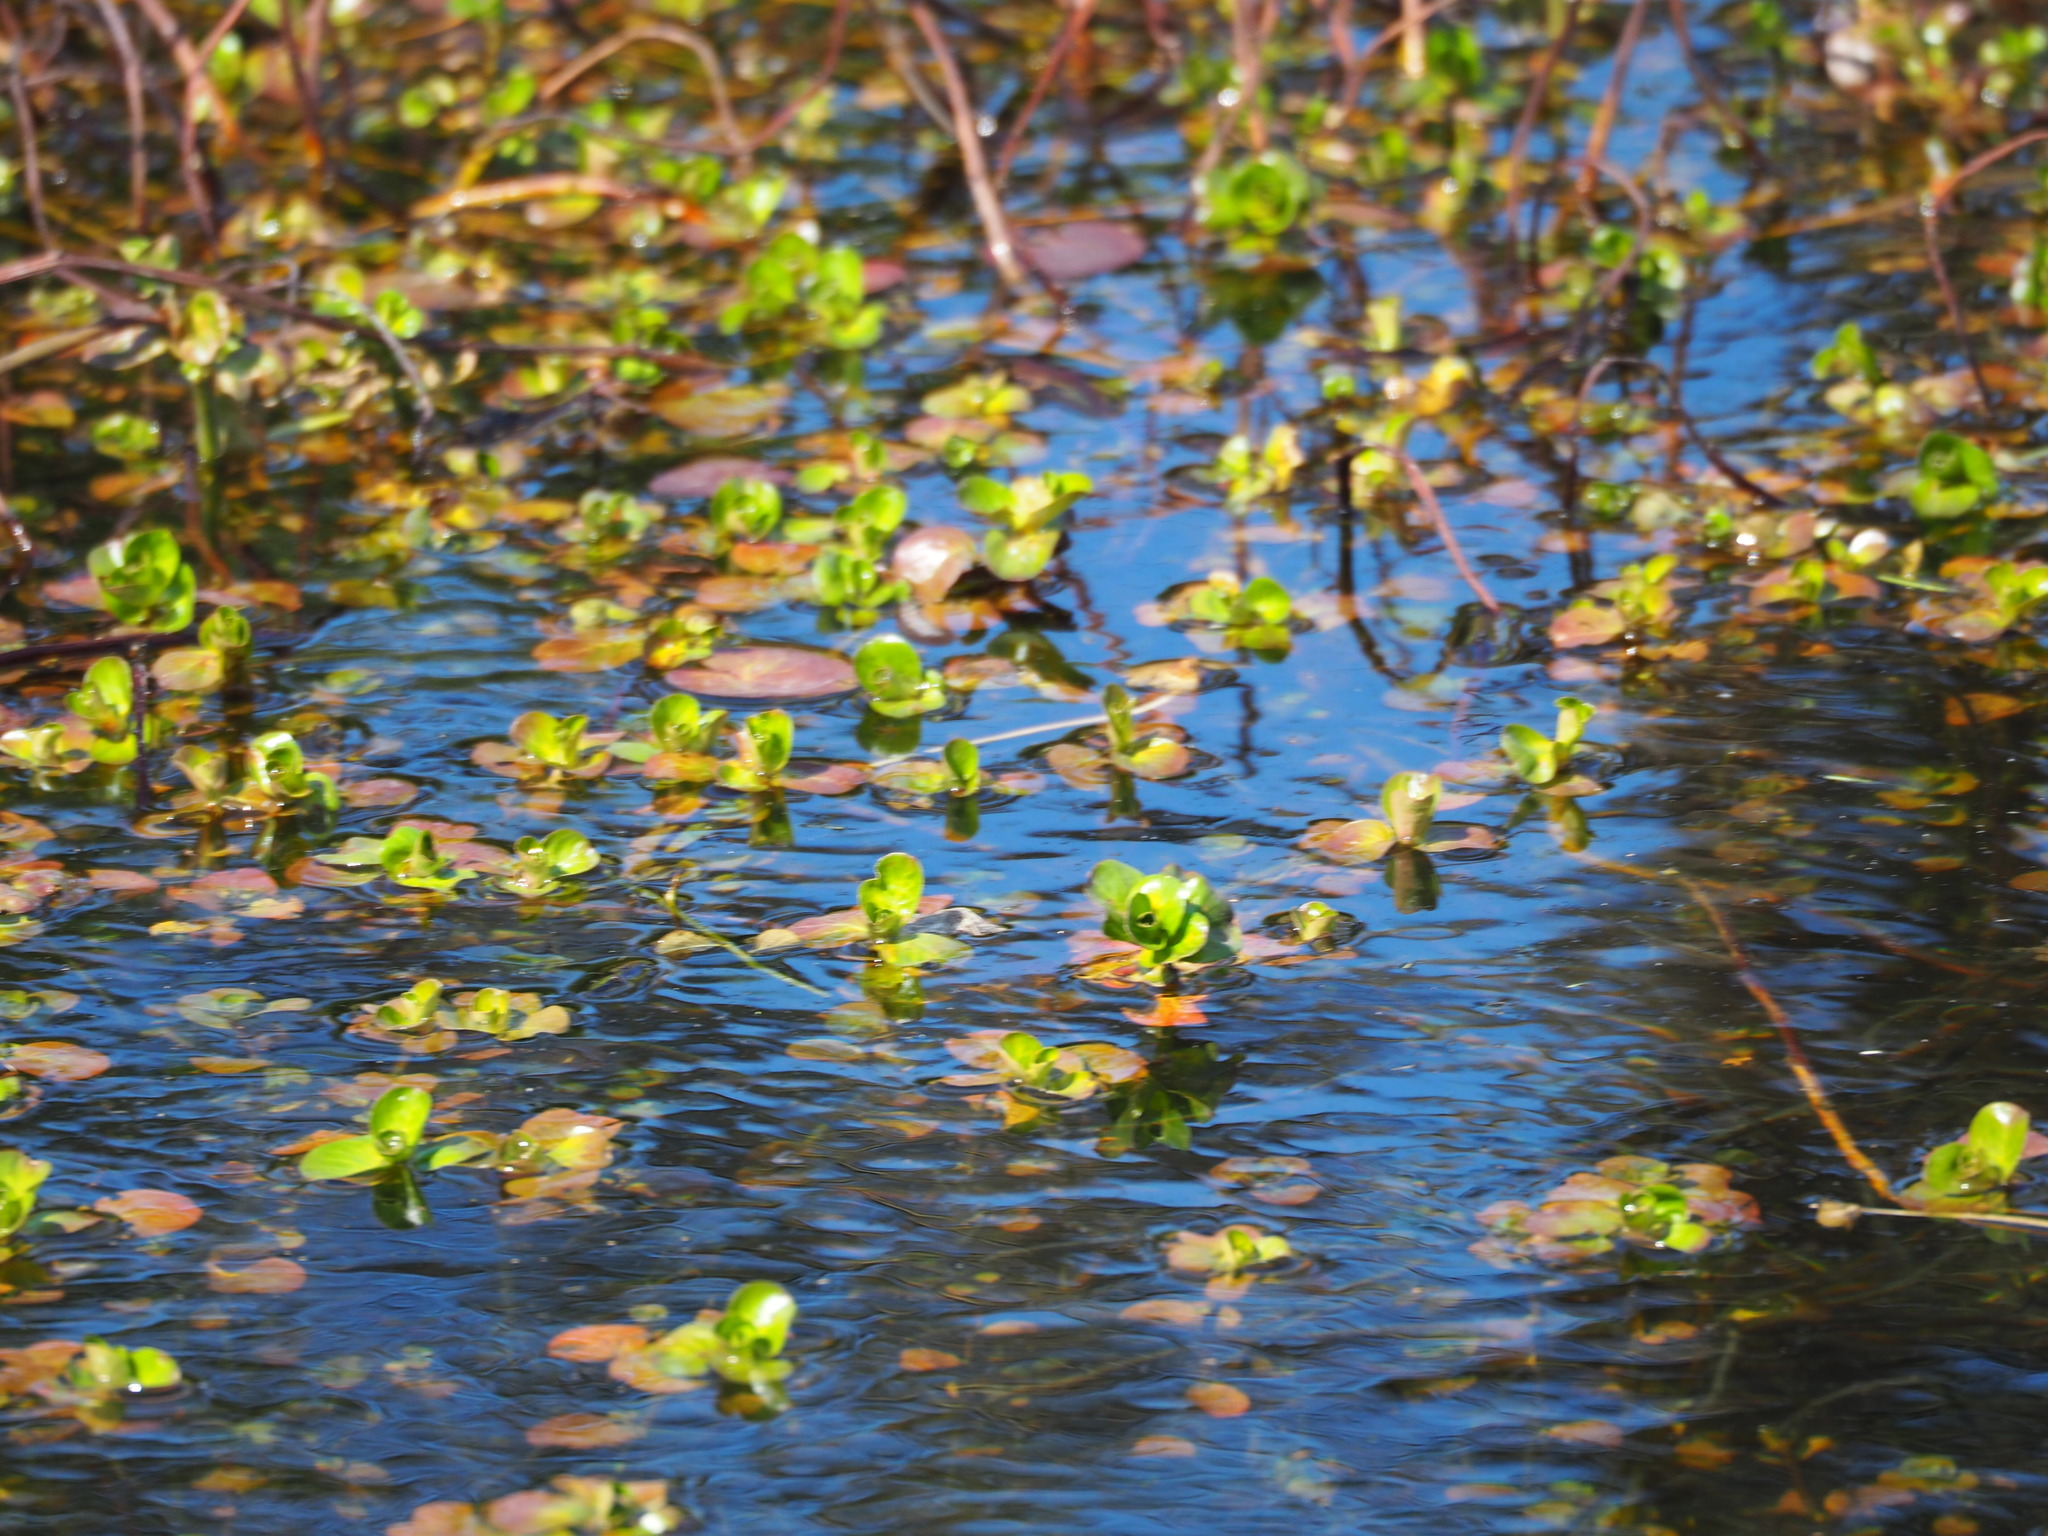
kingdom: Plantae
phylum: Tracheophyta
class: Magnoliopsida
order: Myrtales
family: Lythraceae
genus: Rotala
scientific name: Rotala indica
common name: Indian toothcup
